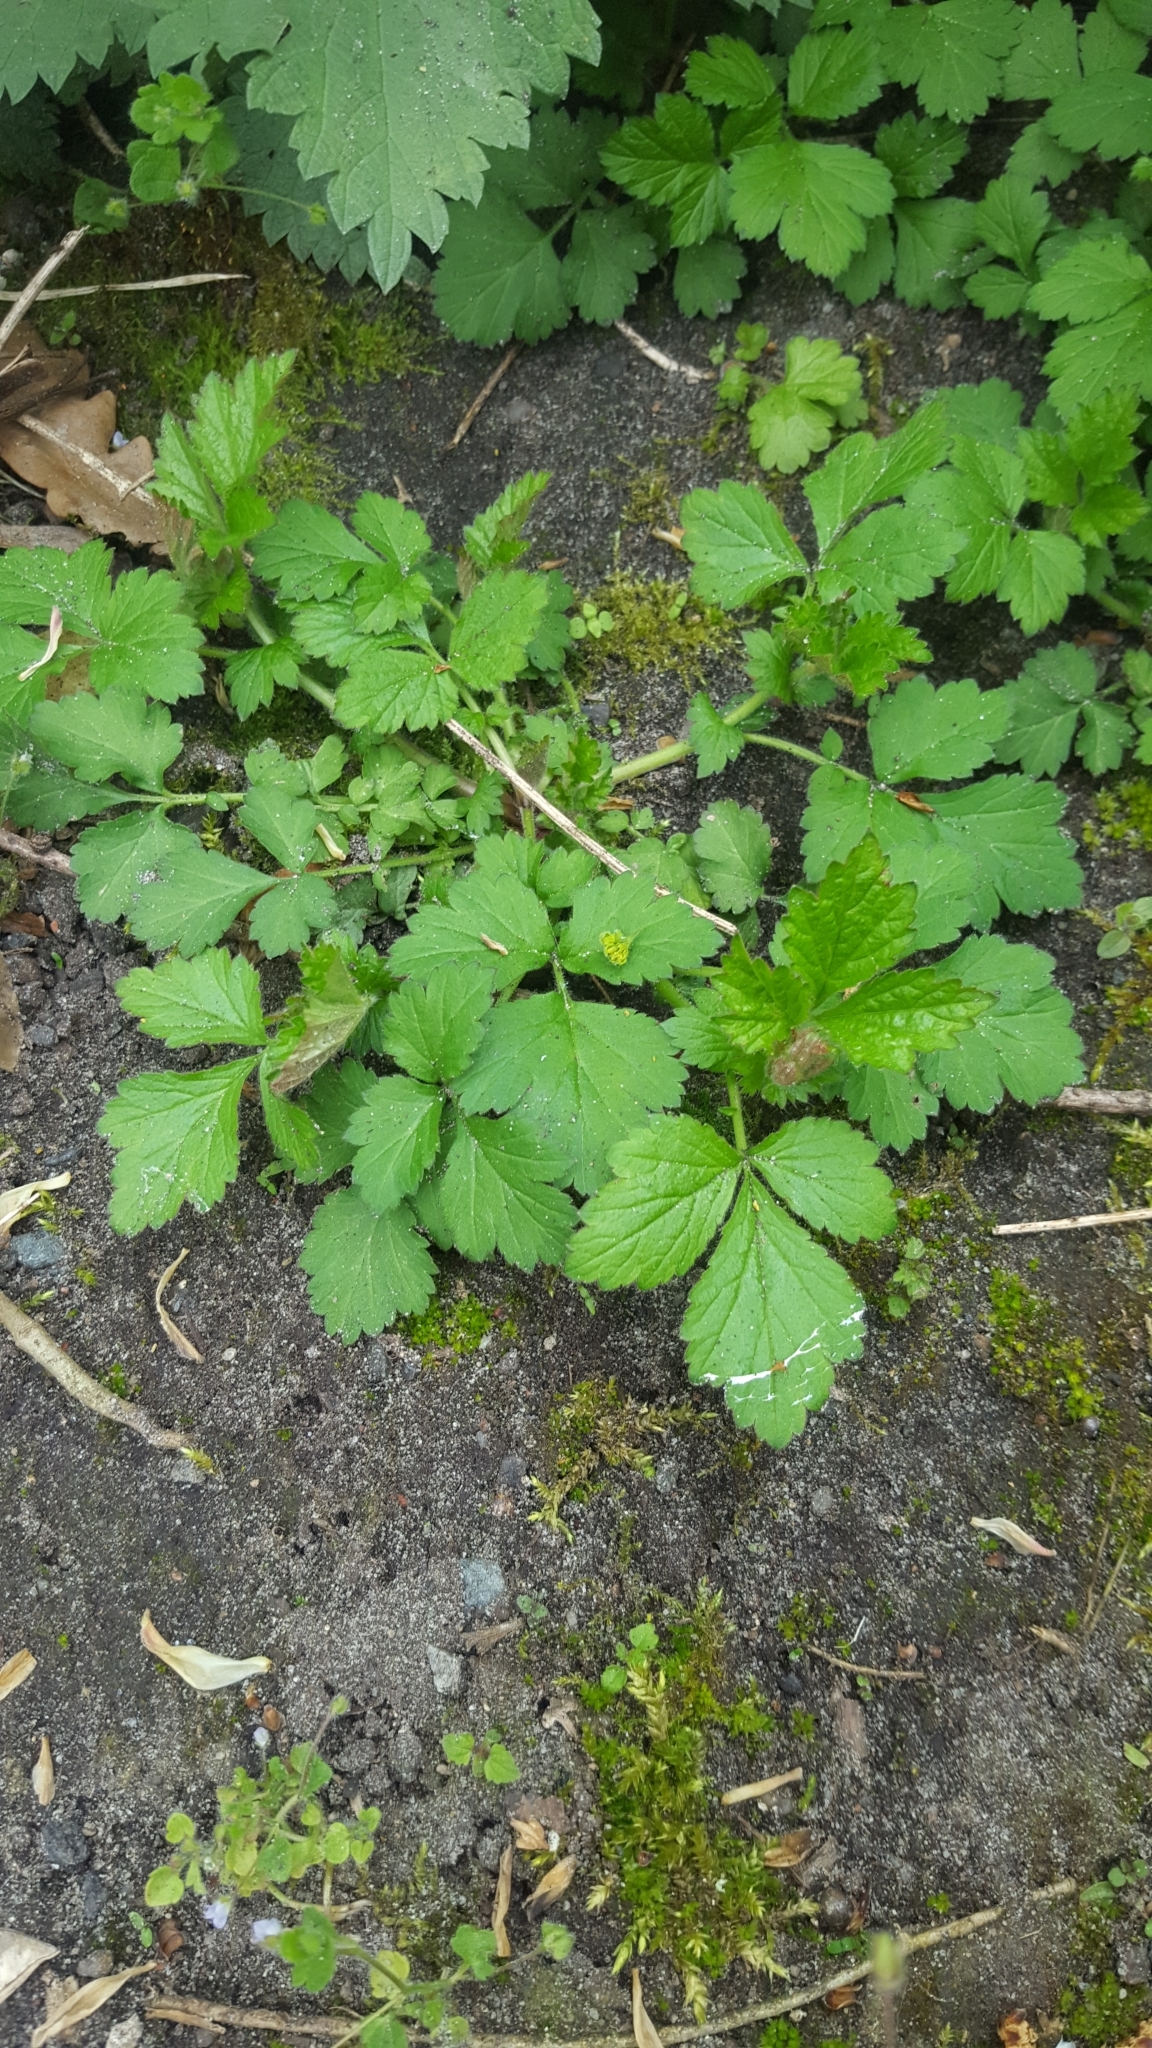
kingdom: Plantae
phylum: Tracheophyta
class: Magnoliopsida
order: Rosales
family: Rosaceae
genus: Geum
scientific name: Geum urbanum
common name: Wood avens
